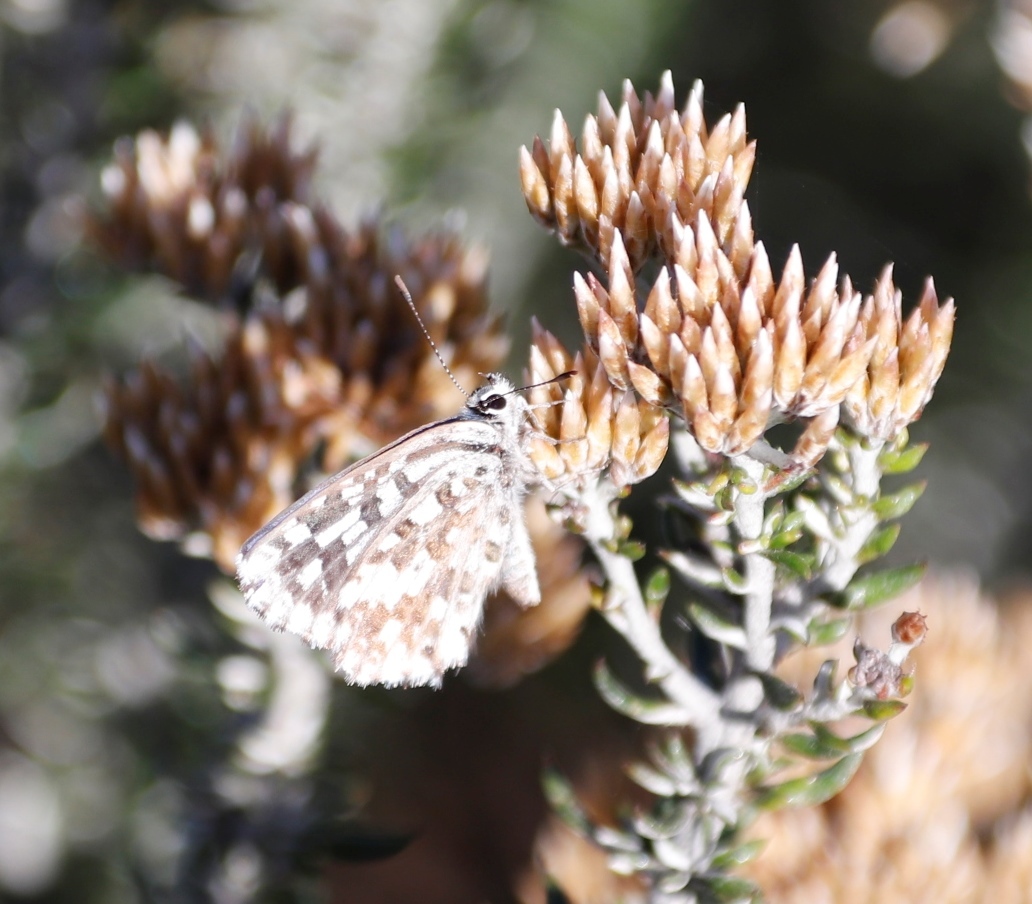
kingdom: Plantae
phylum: Tracheophyta
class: Magnoliopsida
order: Asterales
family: Asteraceae
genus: Metalasia
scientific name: Metalasia densa
